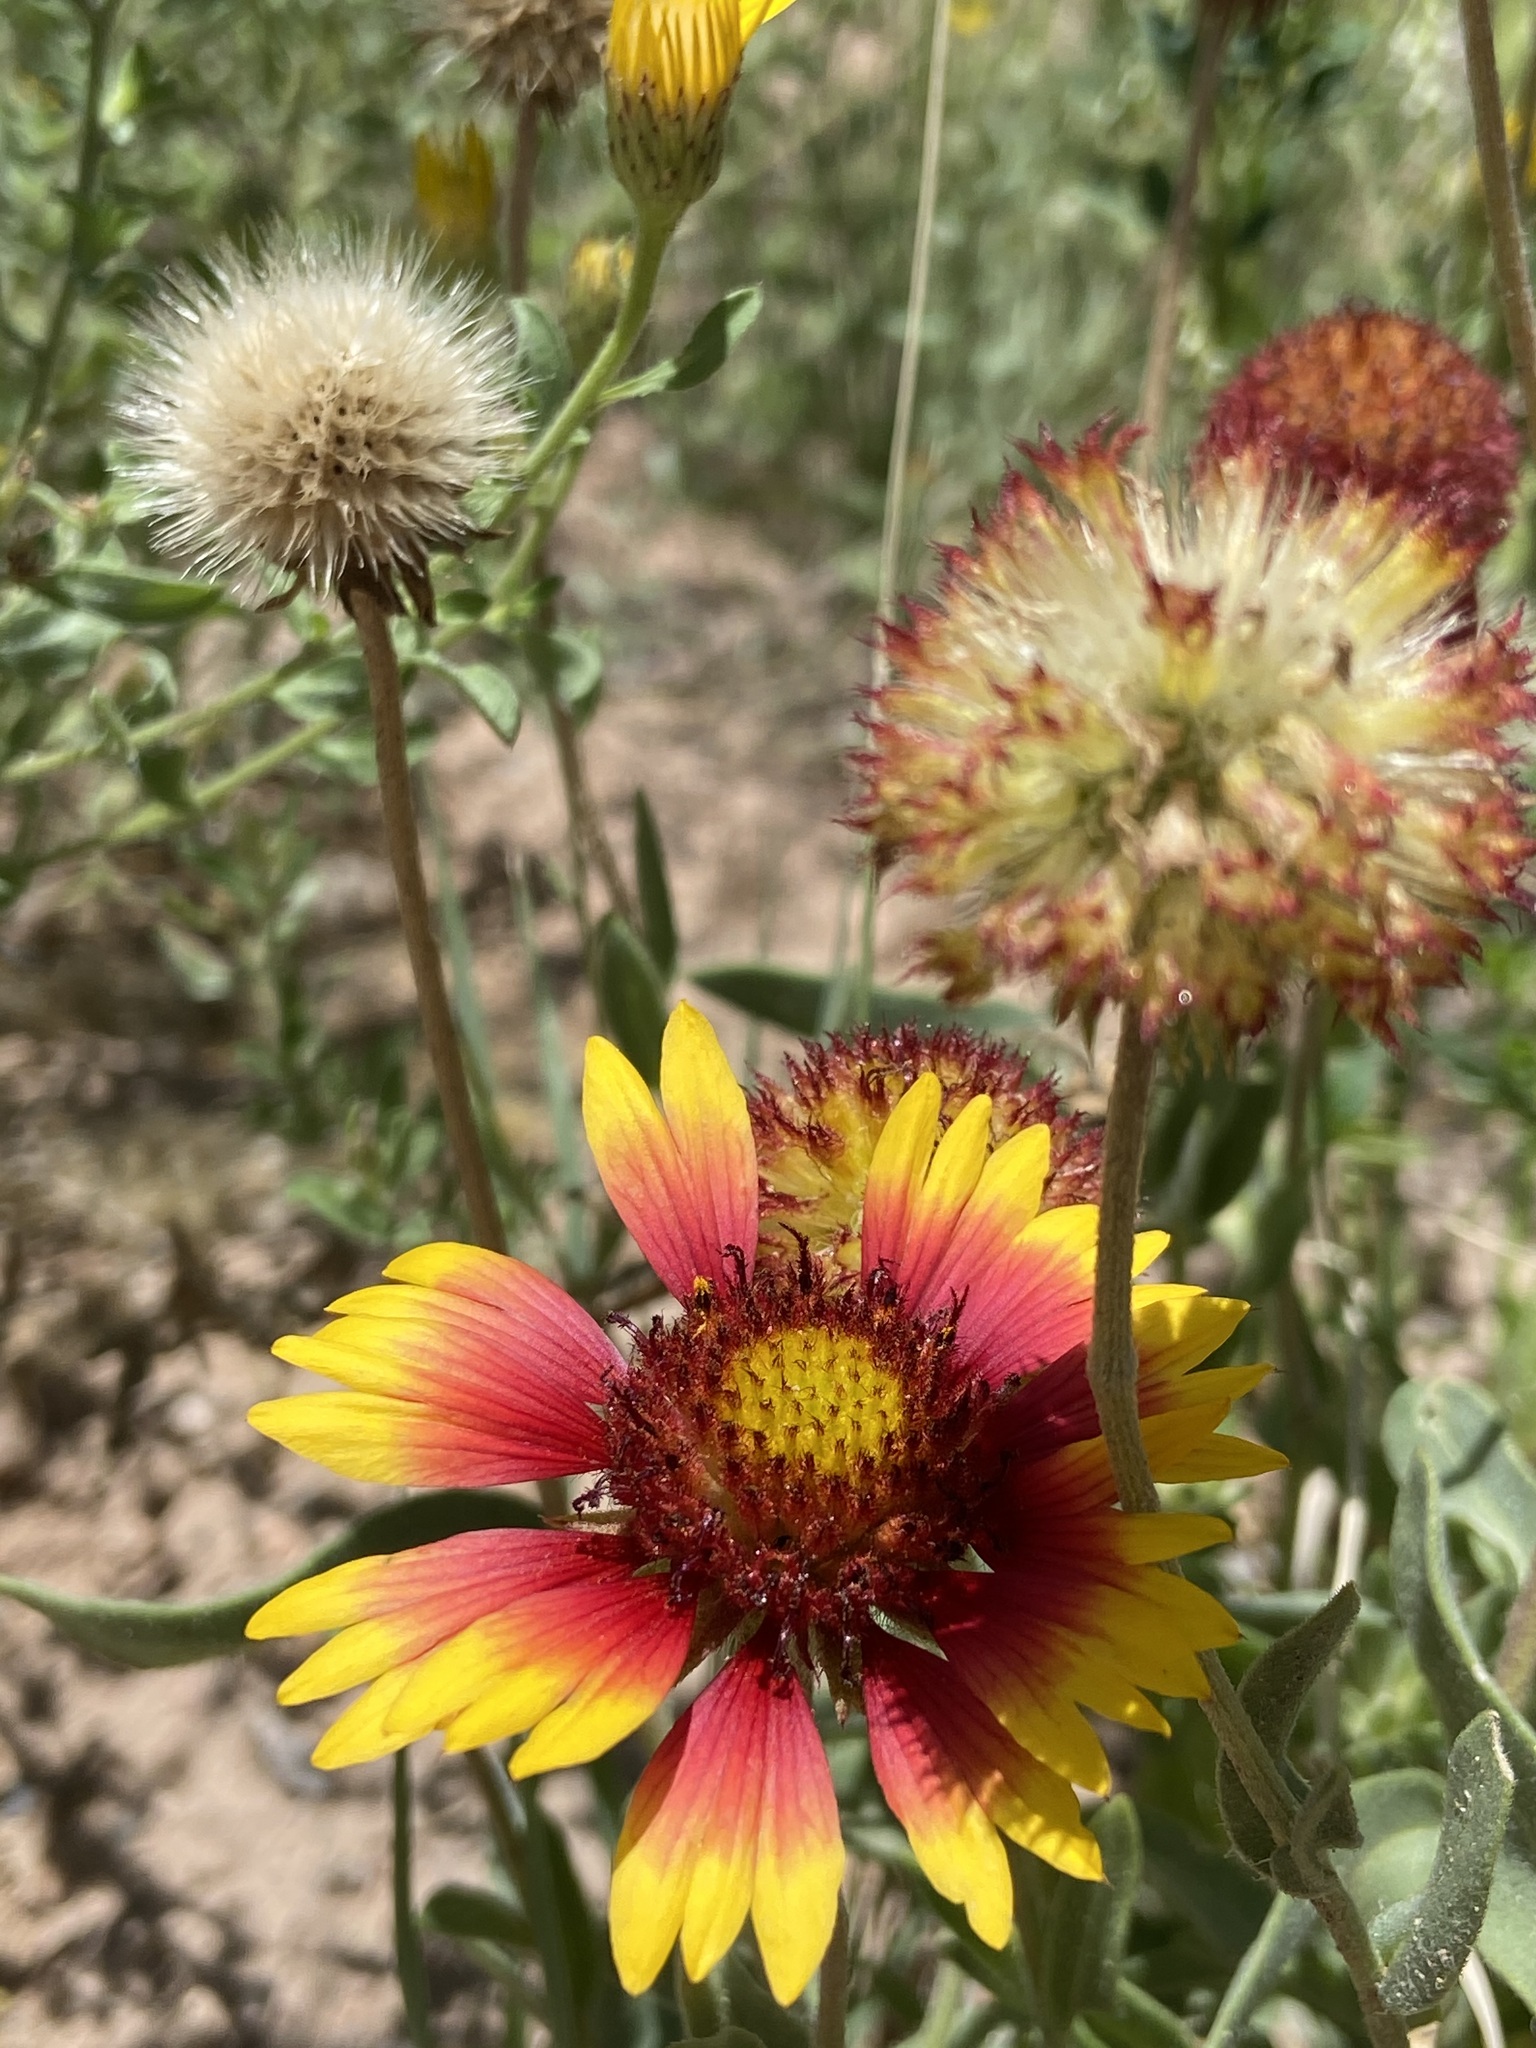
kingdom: Plantae
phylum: Tracheophyta
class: Magnoliopsida
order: Asterales
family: Asteraceae
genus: Gaillardia
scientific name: Gaillardia pulchella
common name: Firewheel
